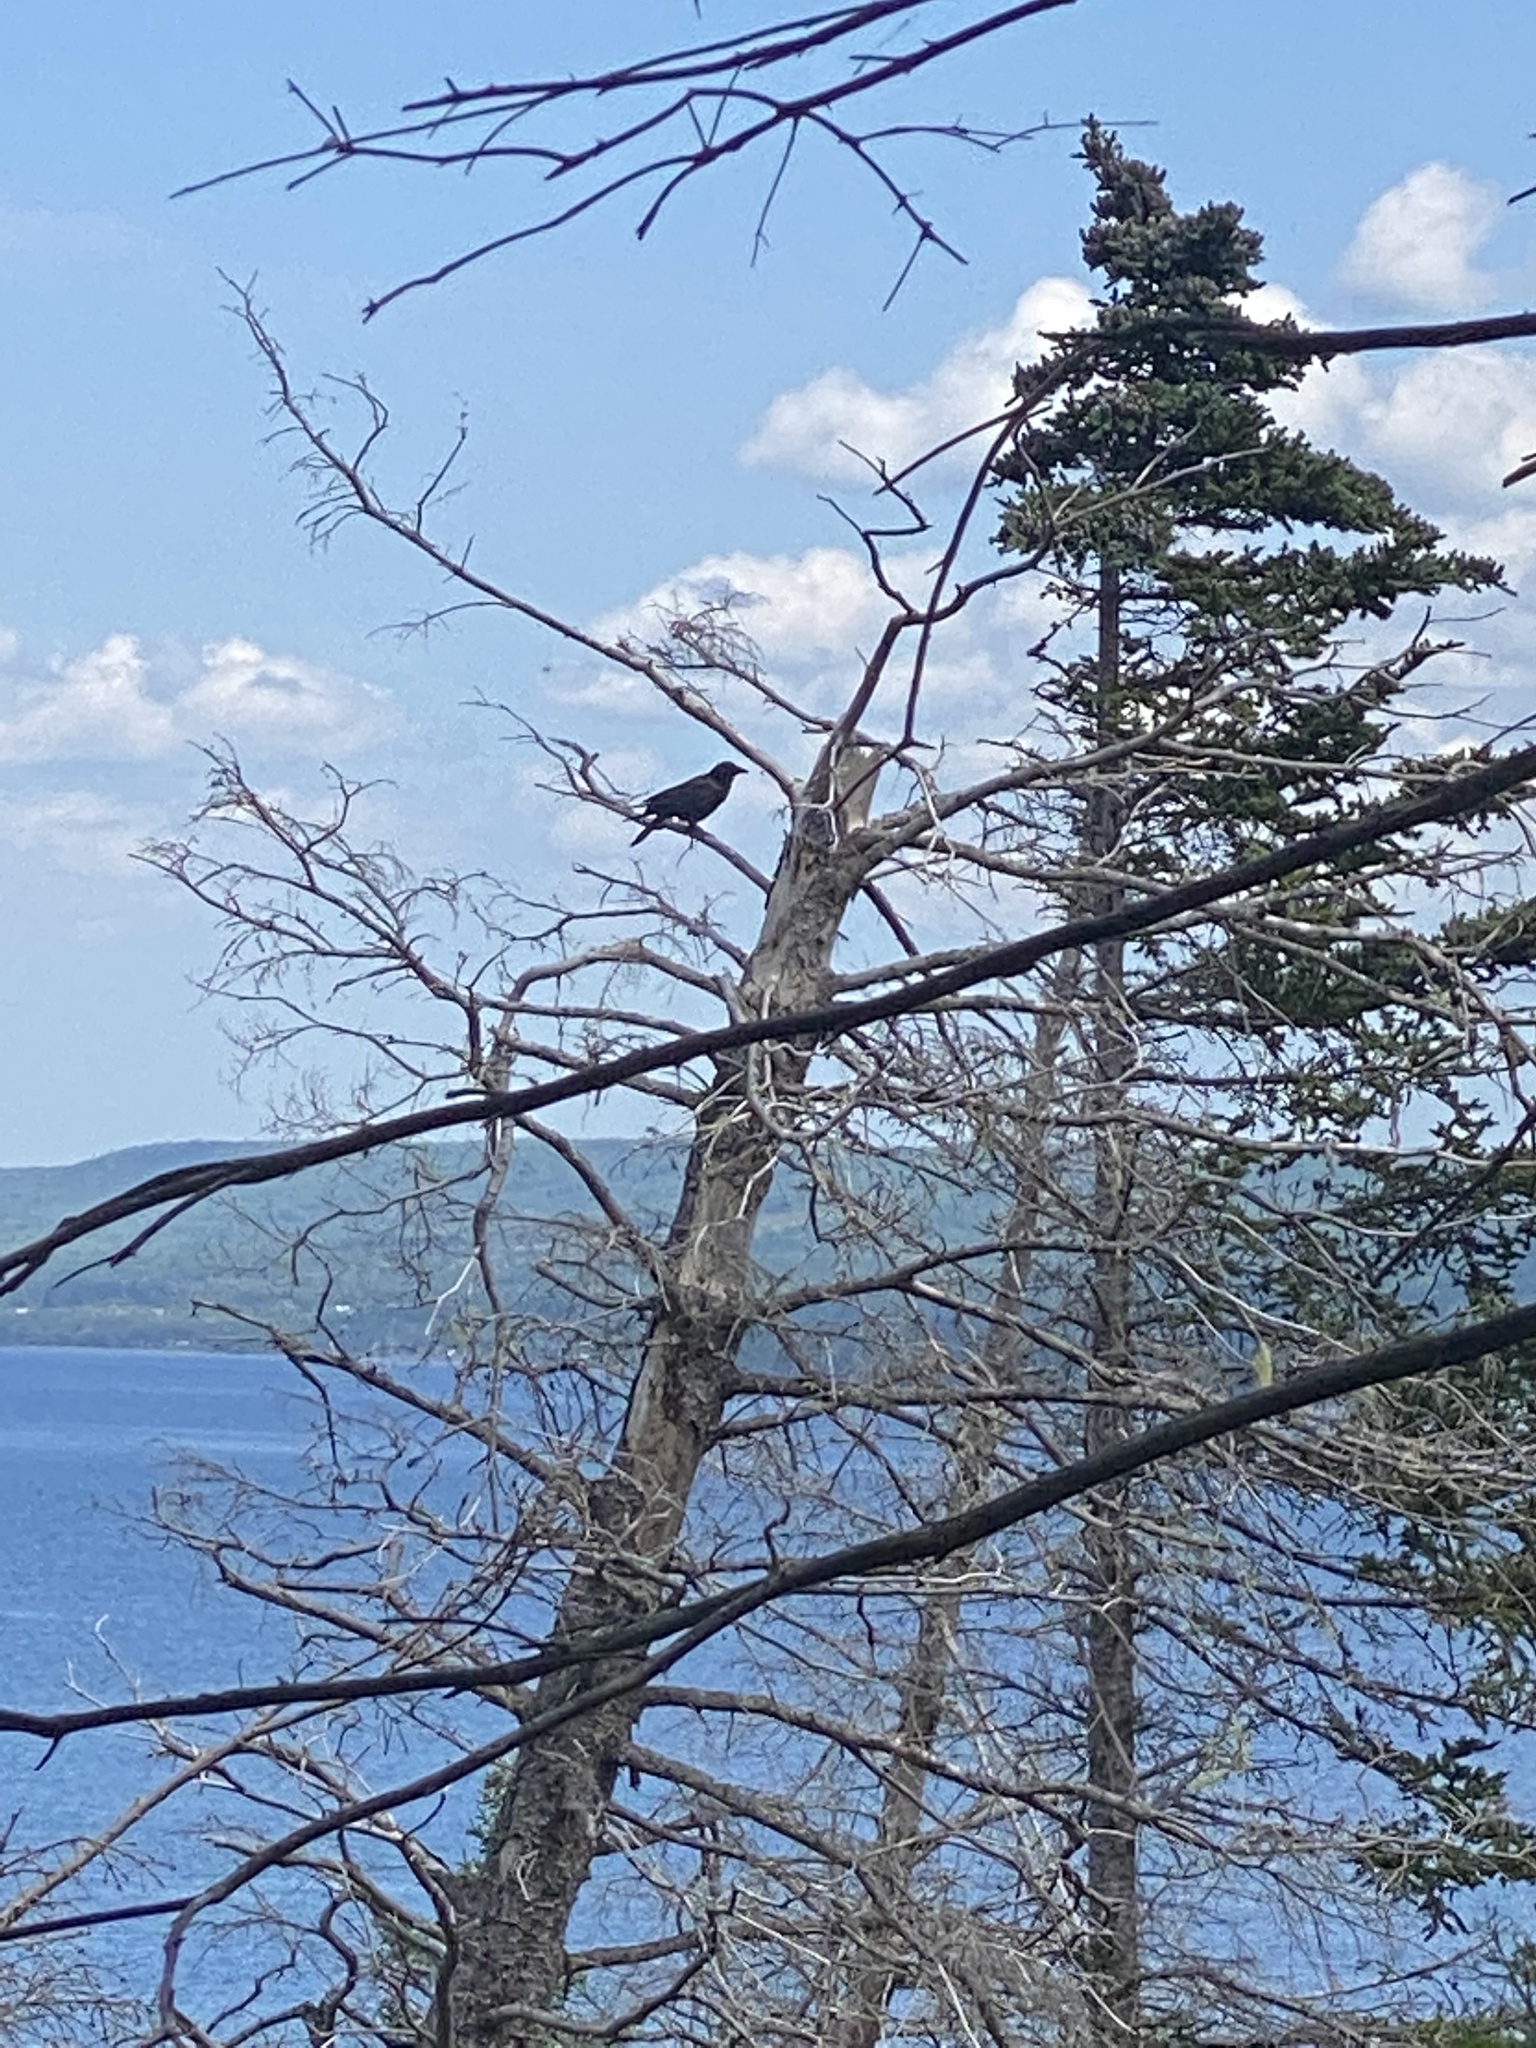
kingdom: Animalia
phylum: Chordata
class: Aves
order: Passeriformes
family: Corvidae
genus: Corvus
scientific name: Corvus brachyrhynchos
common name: American crow
